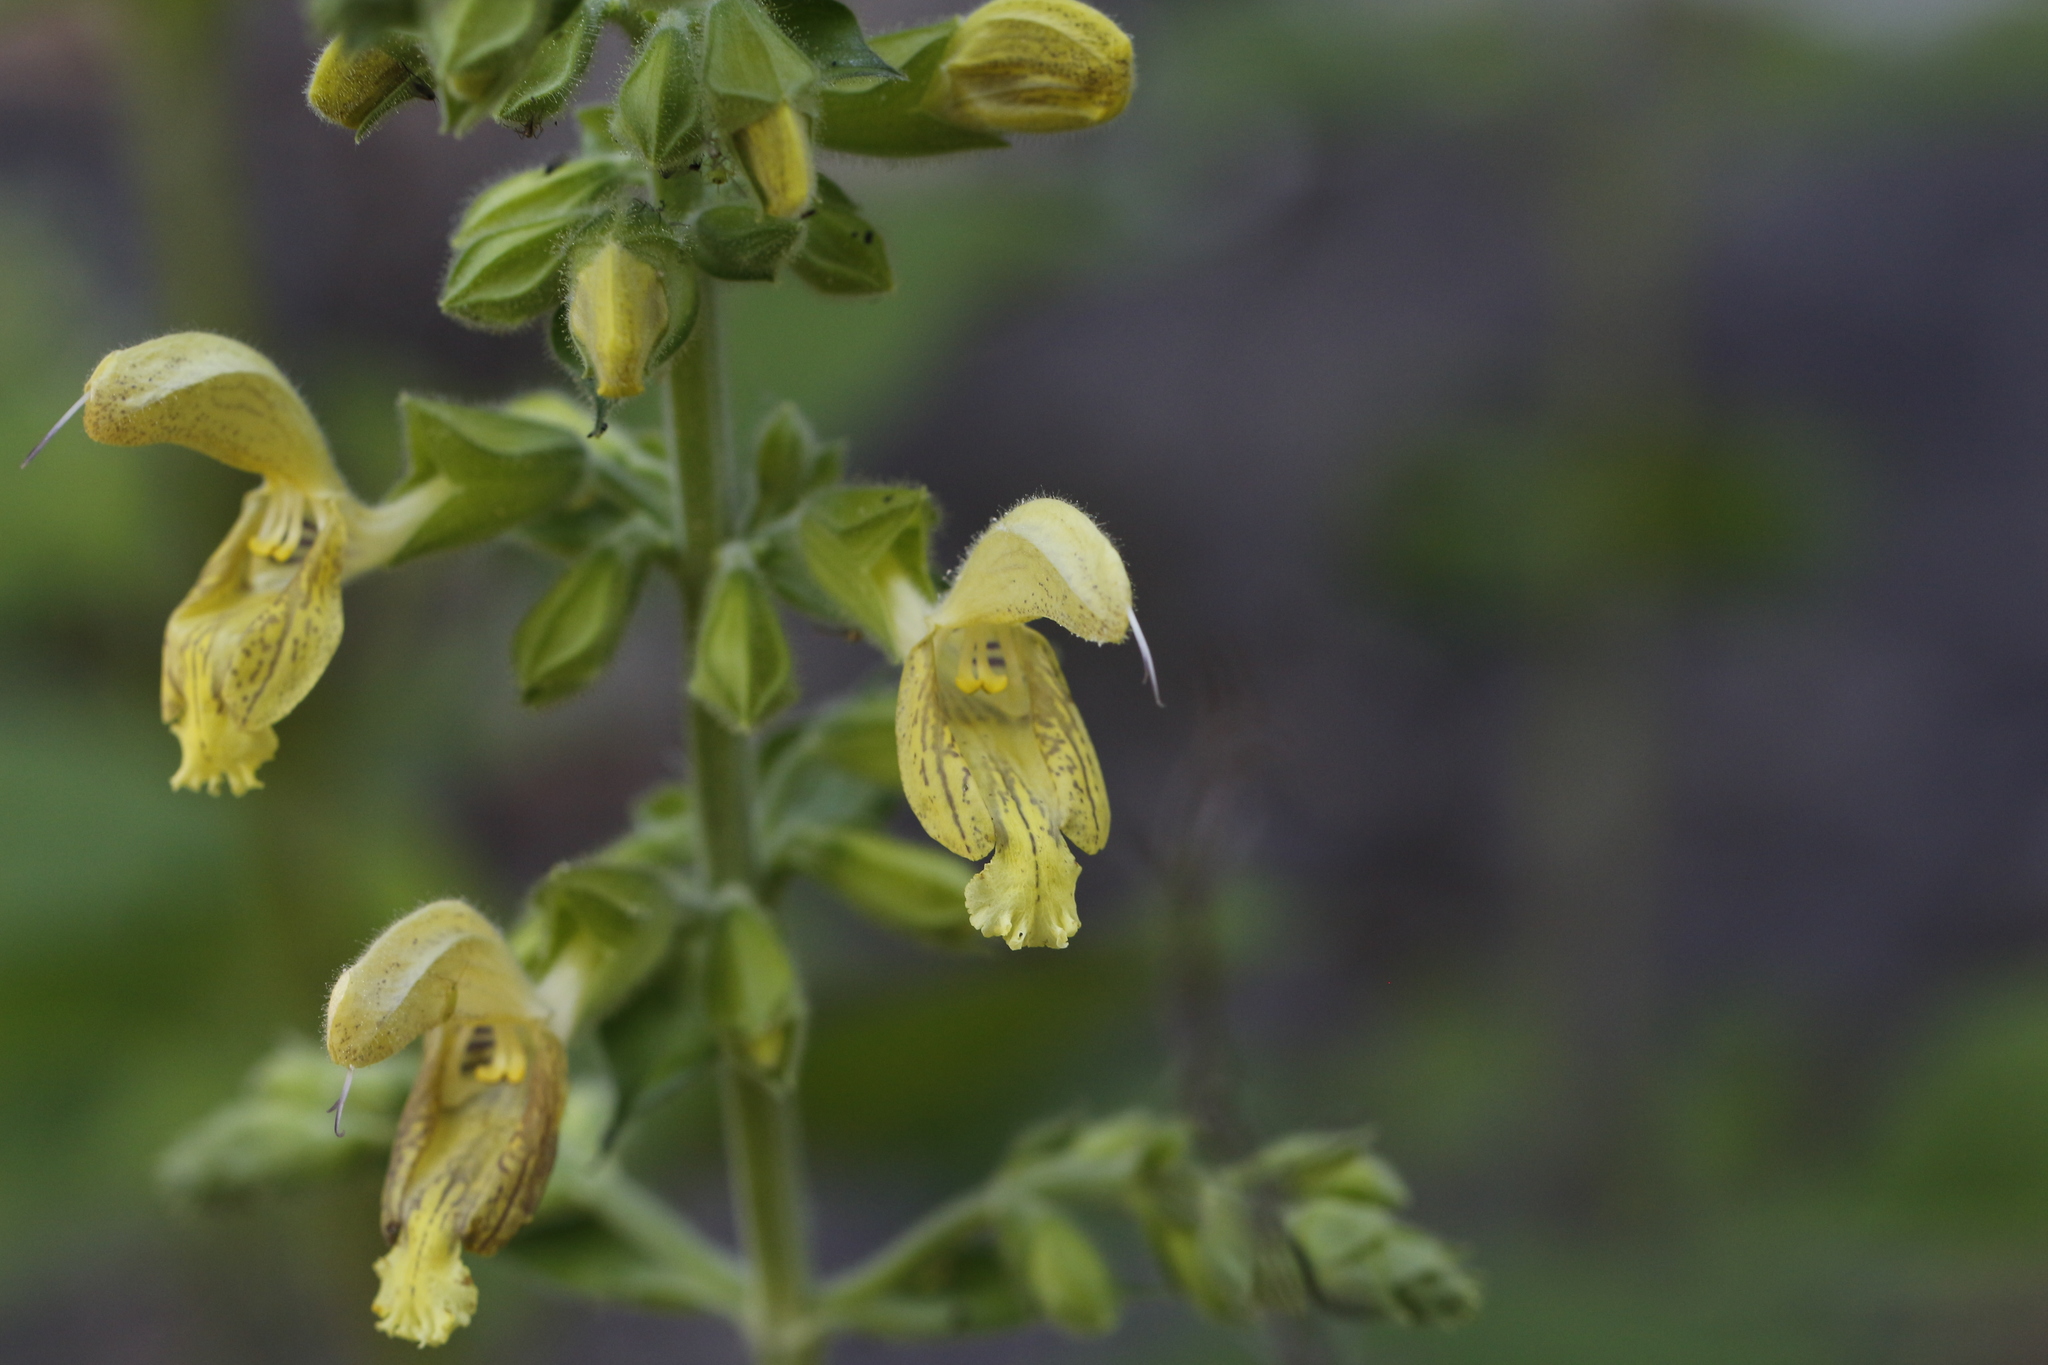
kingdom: Plantae
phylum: Tracheophyta
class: Magnoliopsida
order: Lamiales
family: Lamiaceae
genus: Salvia
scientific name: Salvia glutinosa
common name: Sticky clary
